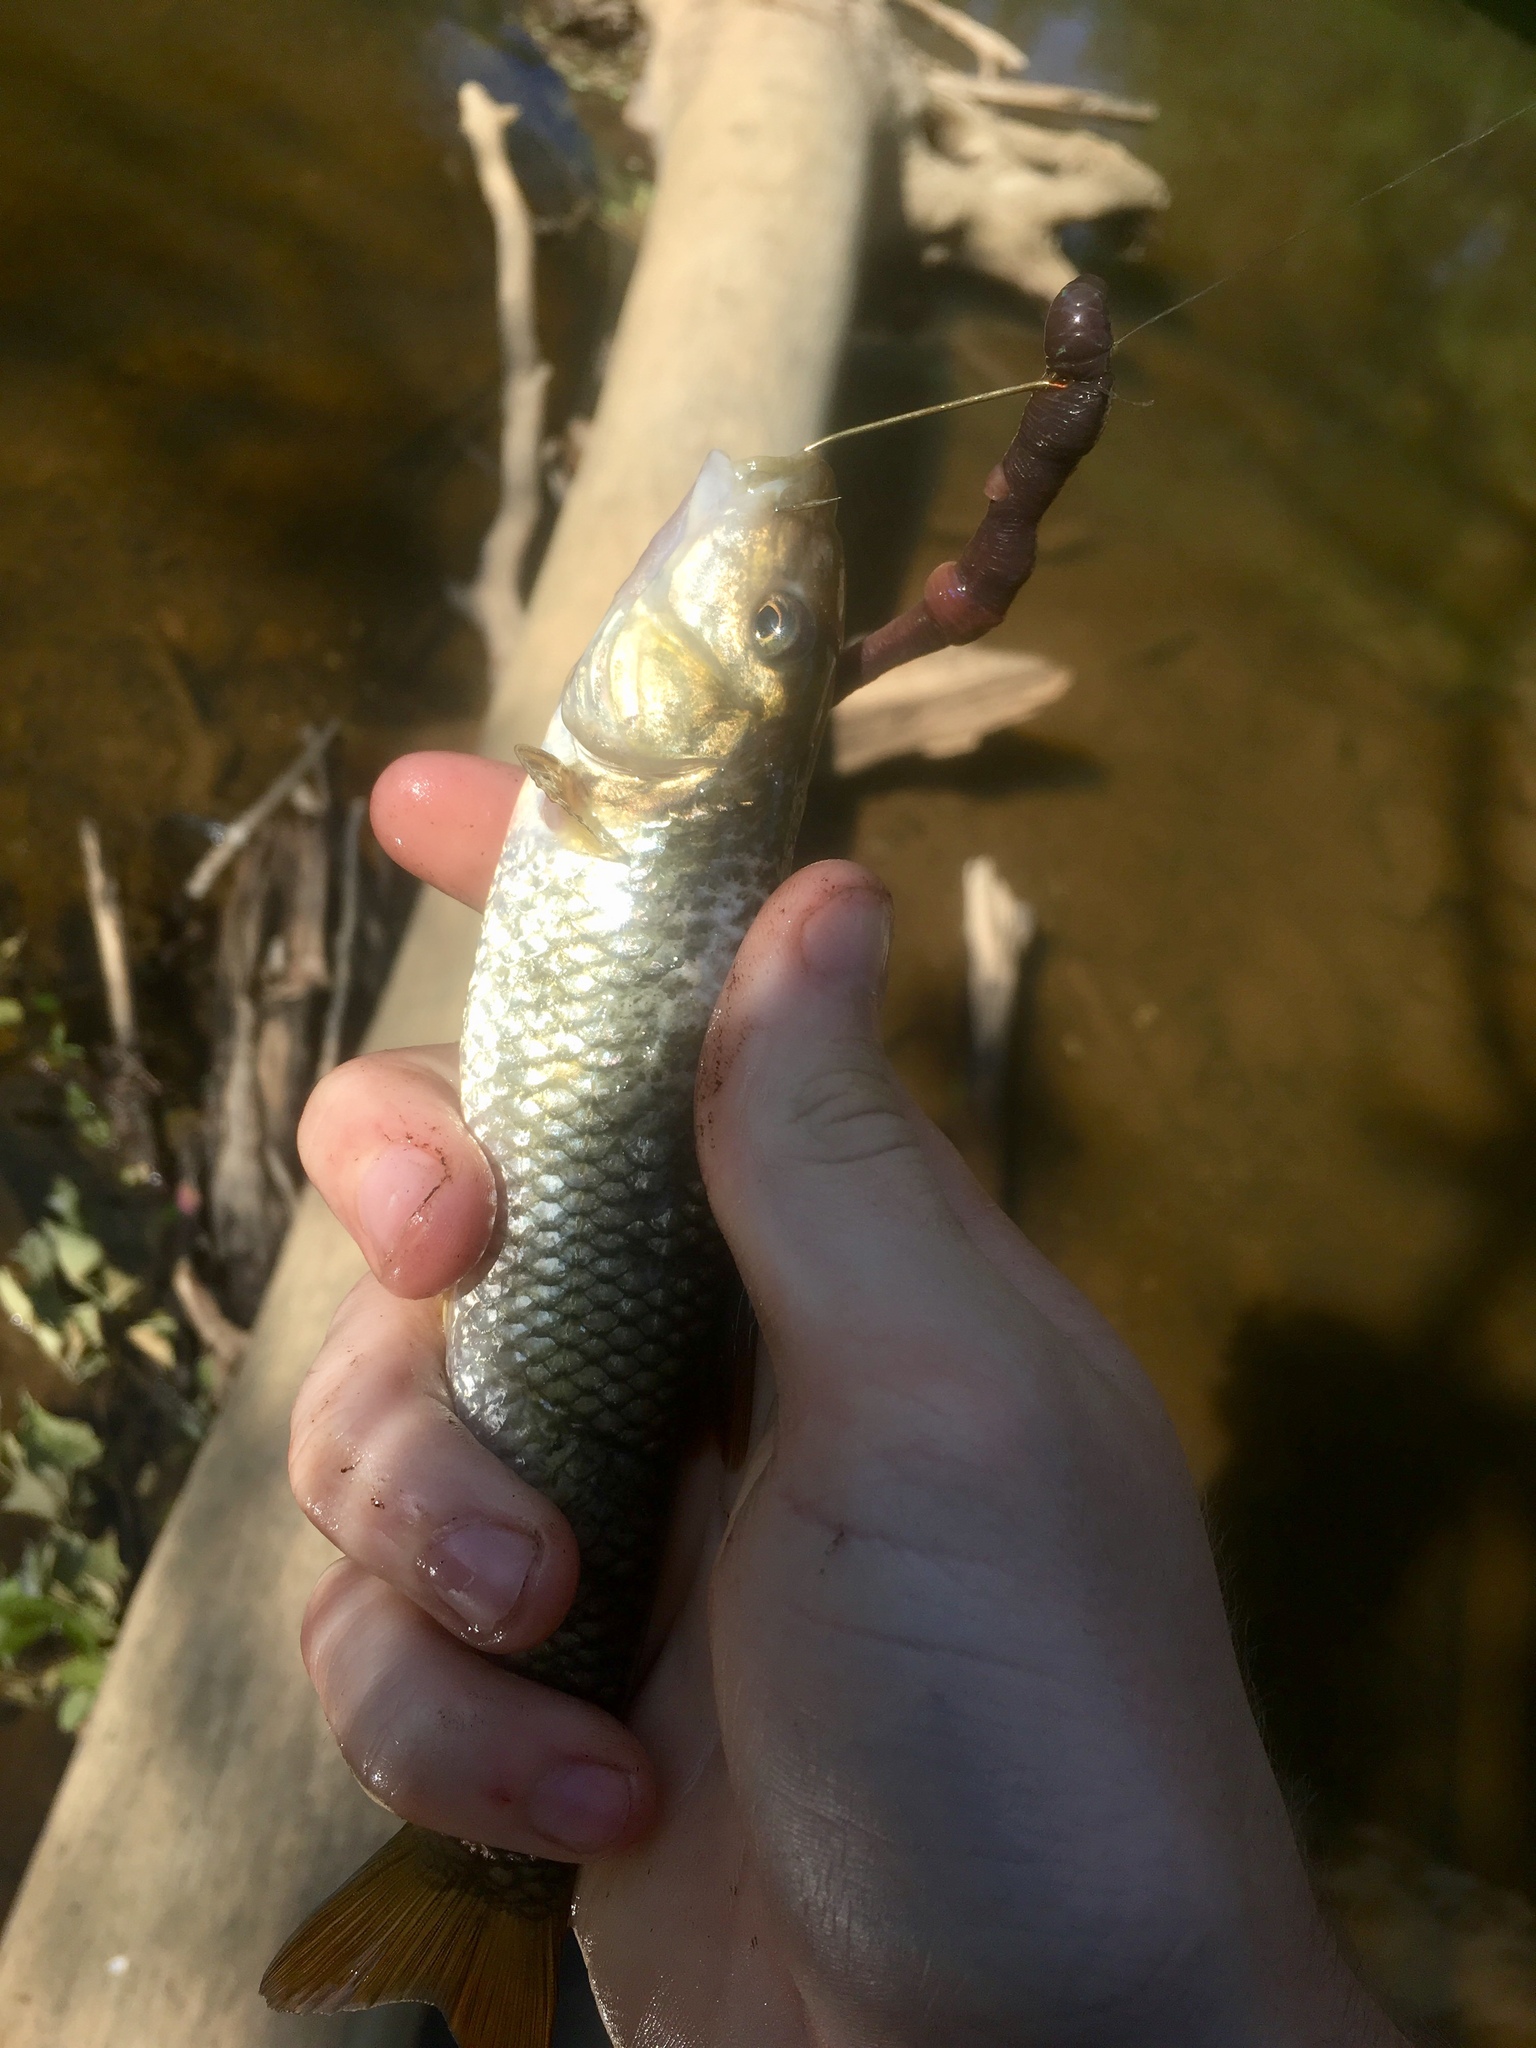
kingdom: Animalia
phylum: Chordata
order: Cypriniformes
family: Cyprinidae
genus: Nocomis
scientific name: Nocomis raneyi
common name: Bull chub
